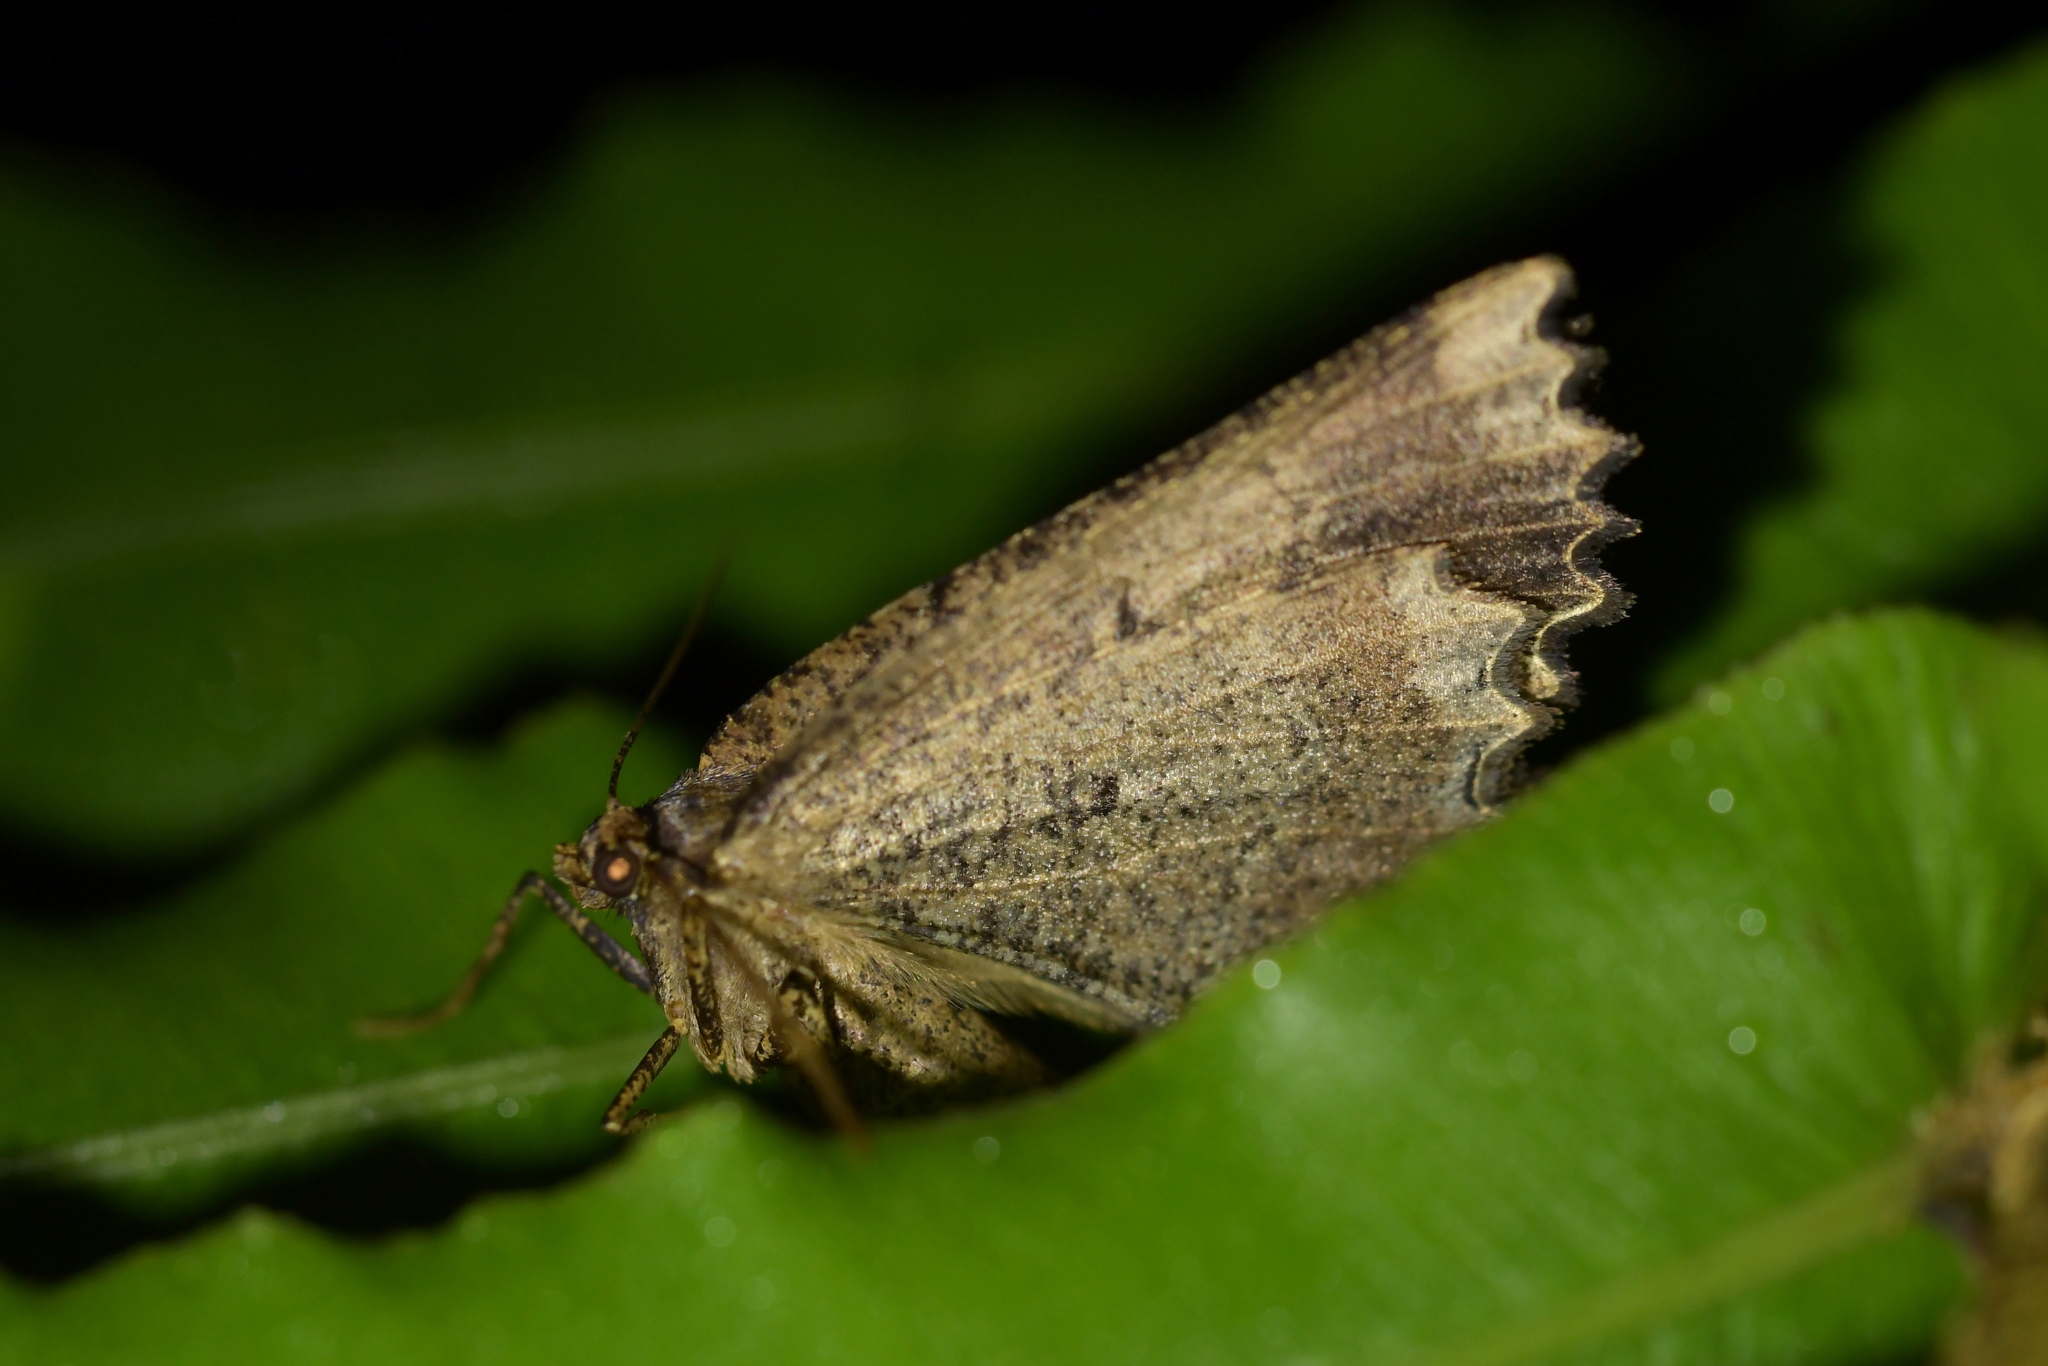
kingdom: Animalia
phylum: Arthropoda
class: Insecta
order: Lepidoptera
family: Geometridae
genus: Gellonia
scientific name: Gellonia pannularia
